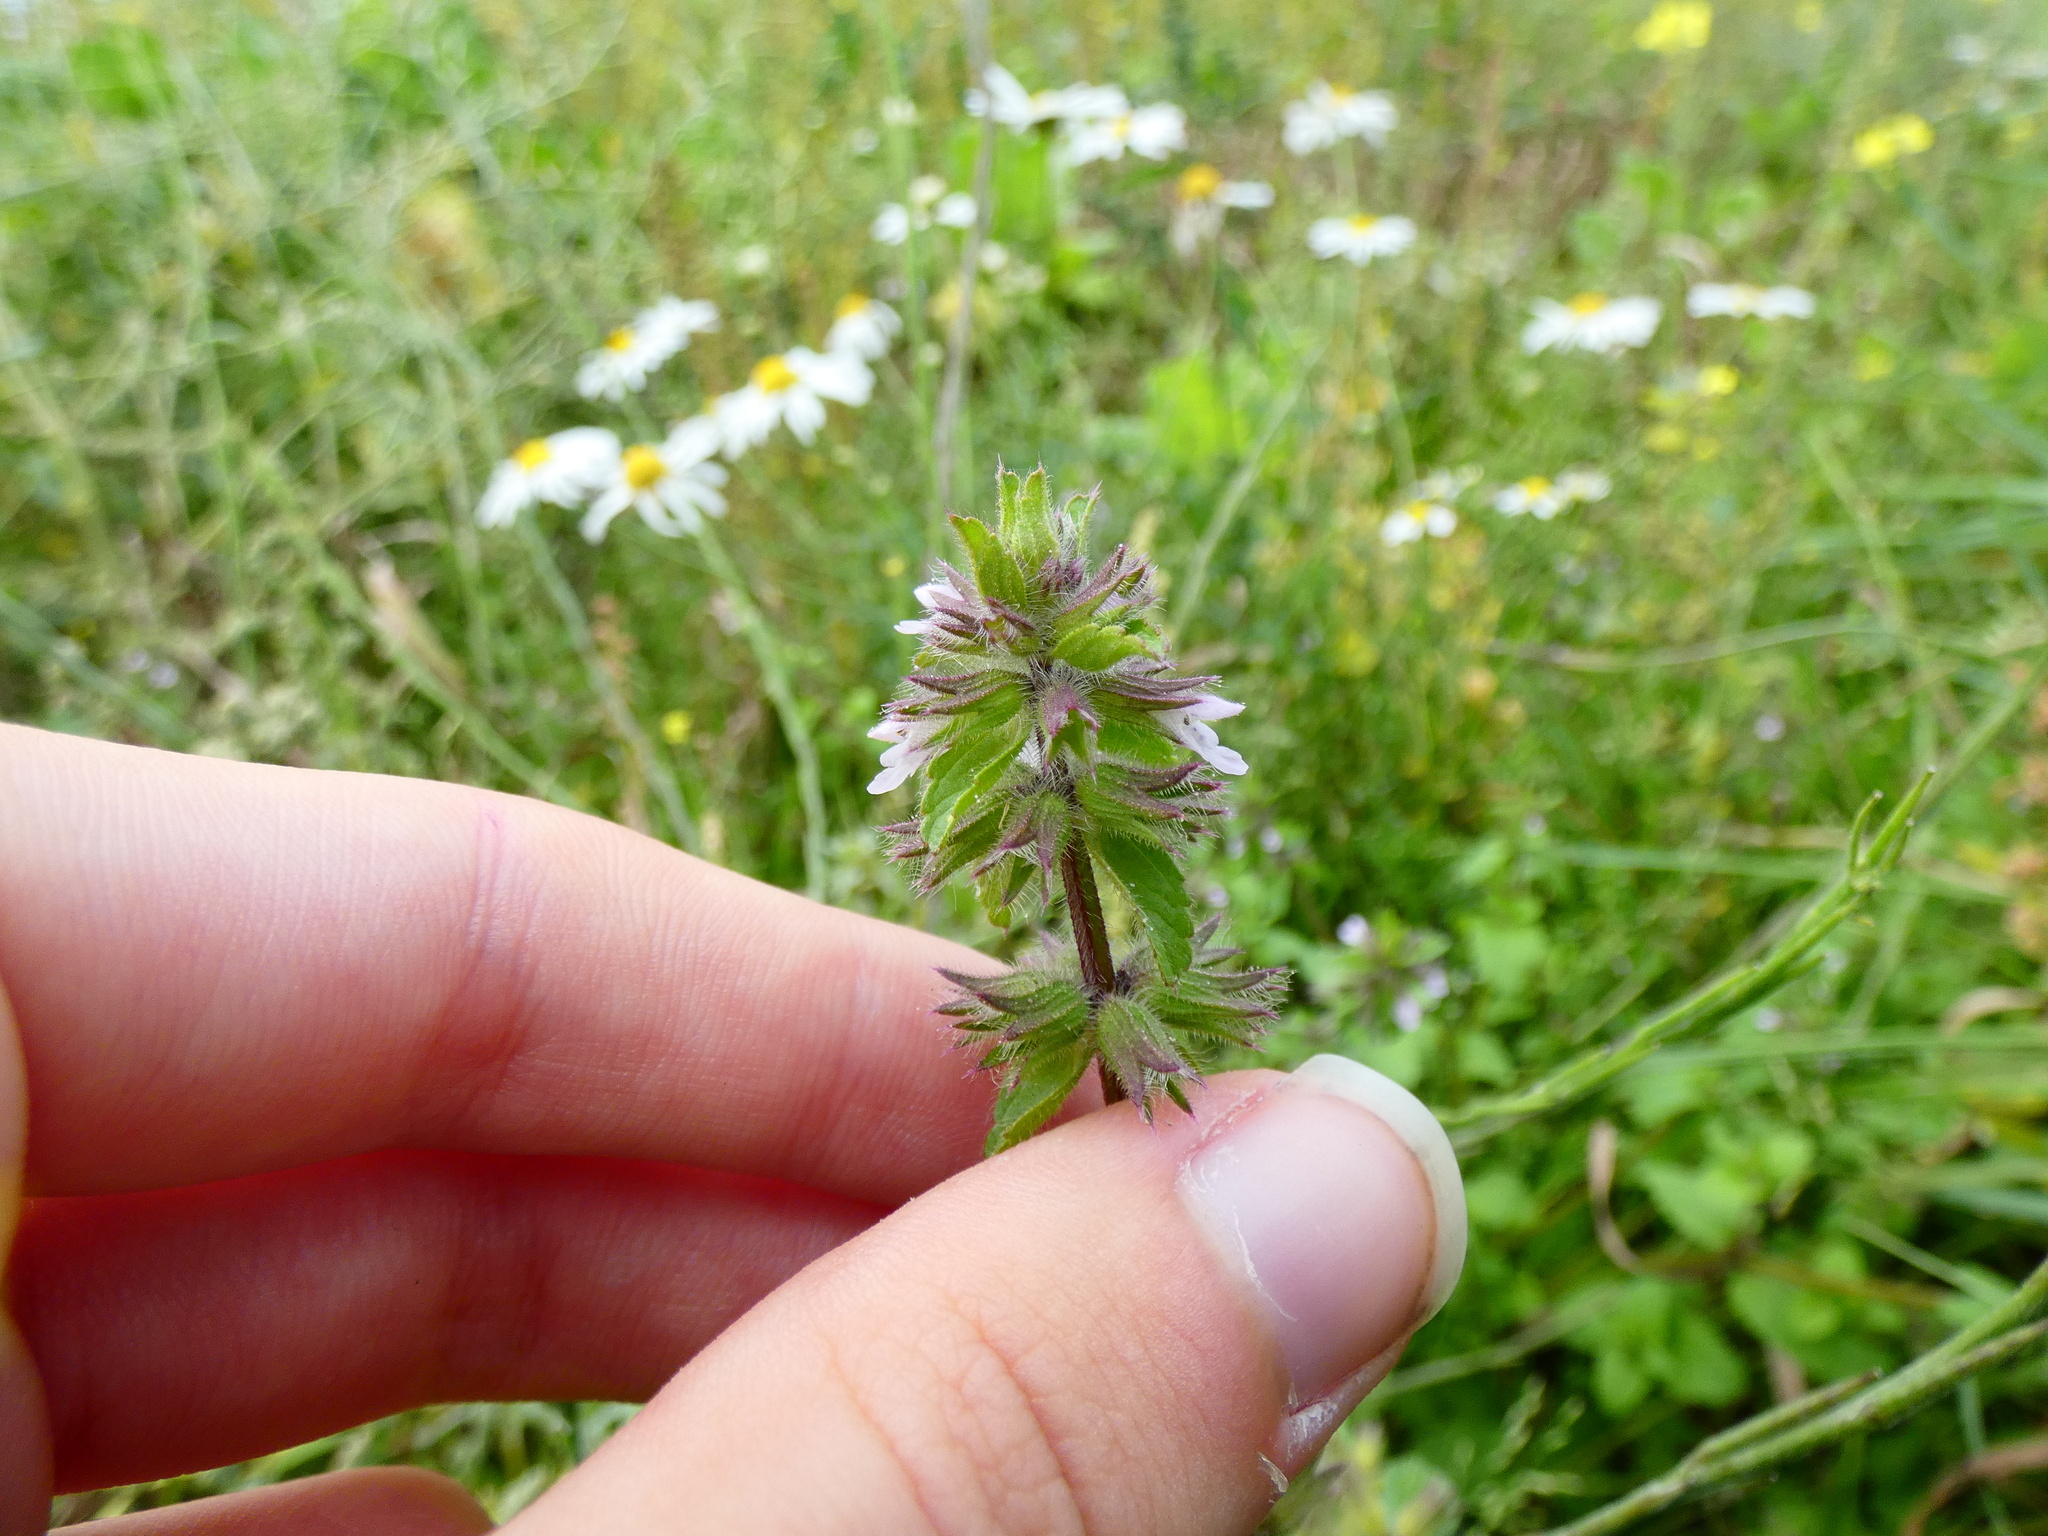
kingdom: Plantae
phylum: Tracheophyta
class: Magnoliopsida
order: Lamiales
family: Lamiaceae
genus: Stachys
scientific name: Stachys arvensis
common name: Field woundwort
